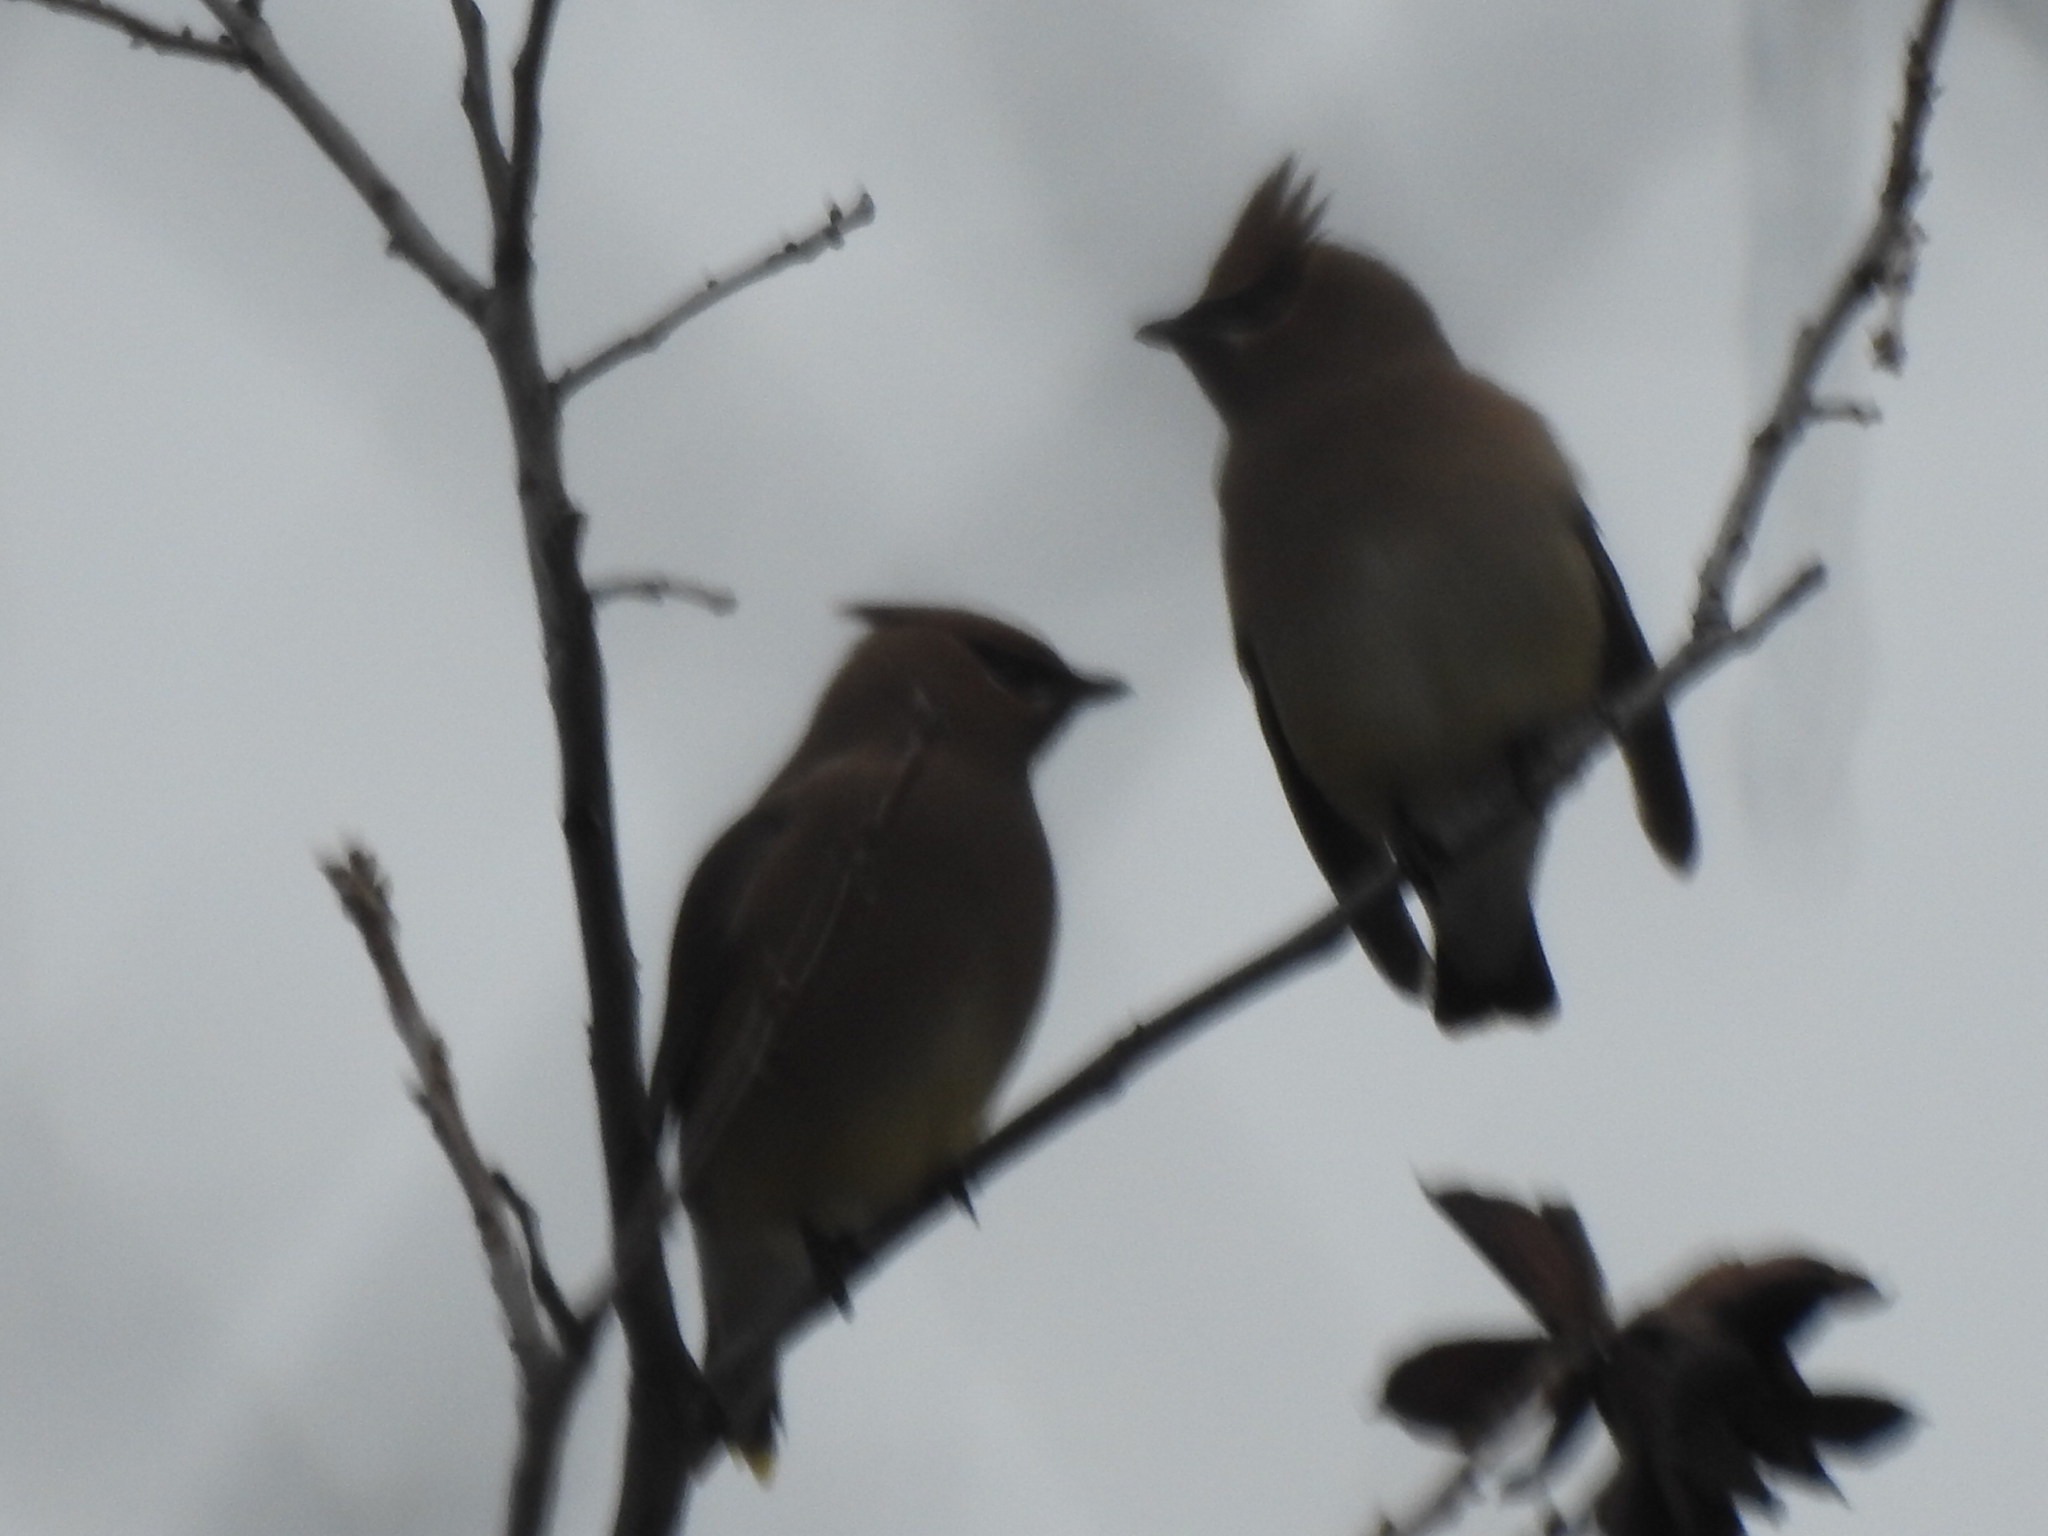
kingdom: Animalia
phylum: Chordata
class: Aves
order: Passeriformes
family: Bombycillidae
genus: Bombycilla
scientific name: Bombycilla cedrorum
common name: Cedar waxwing
